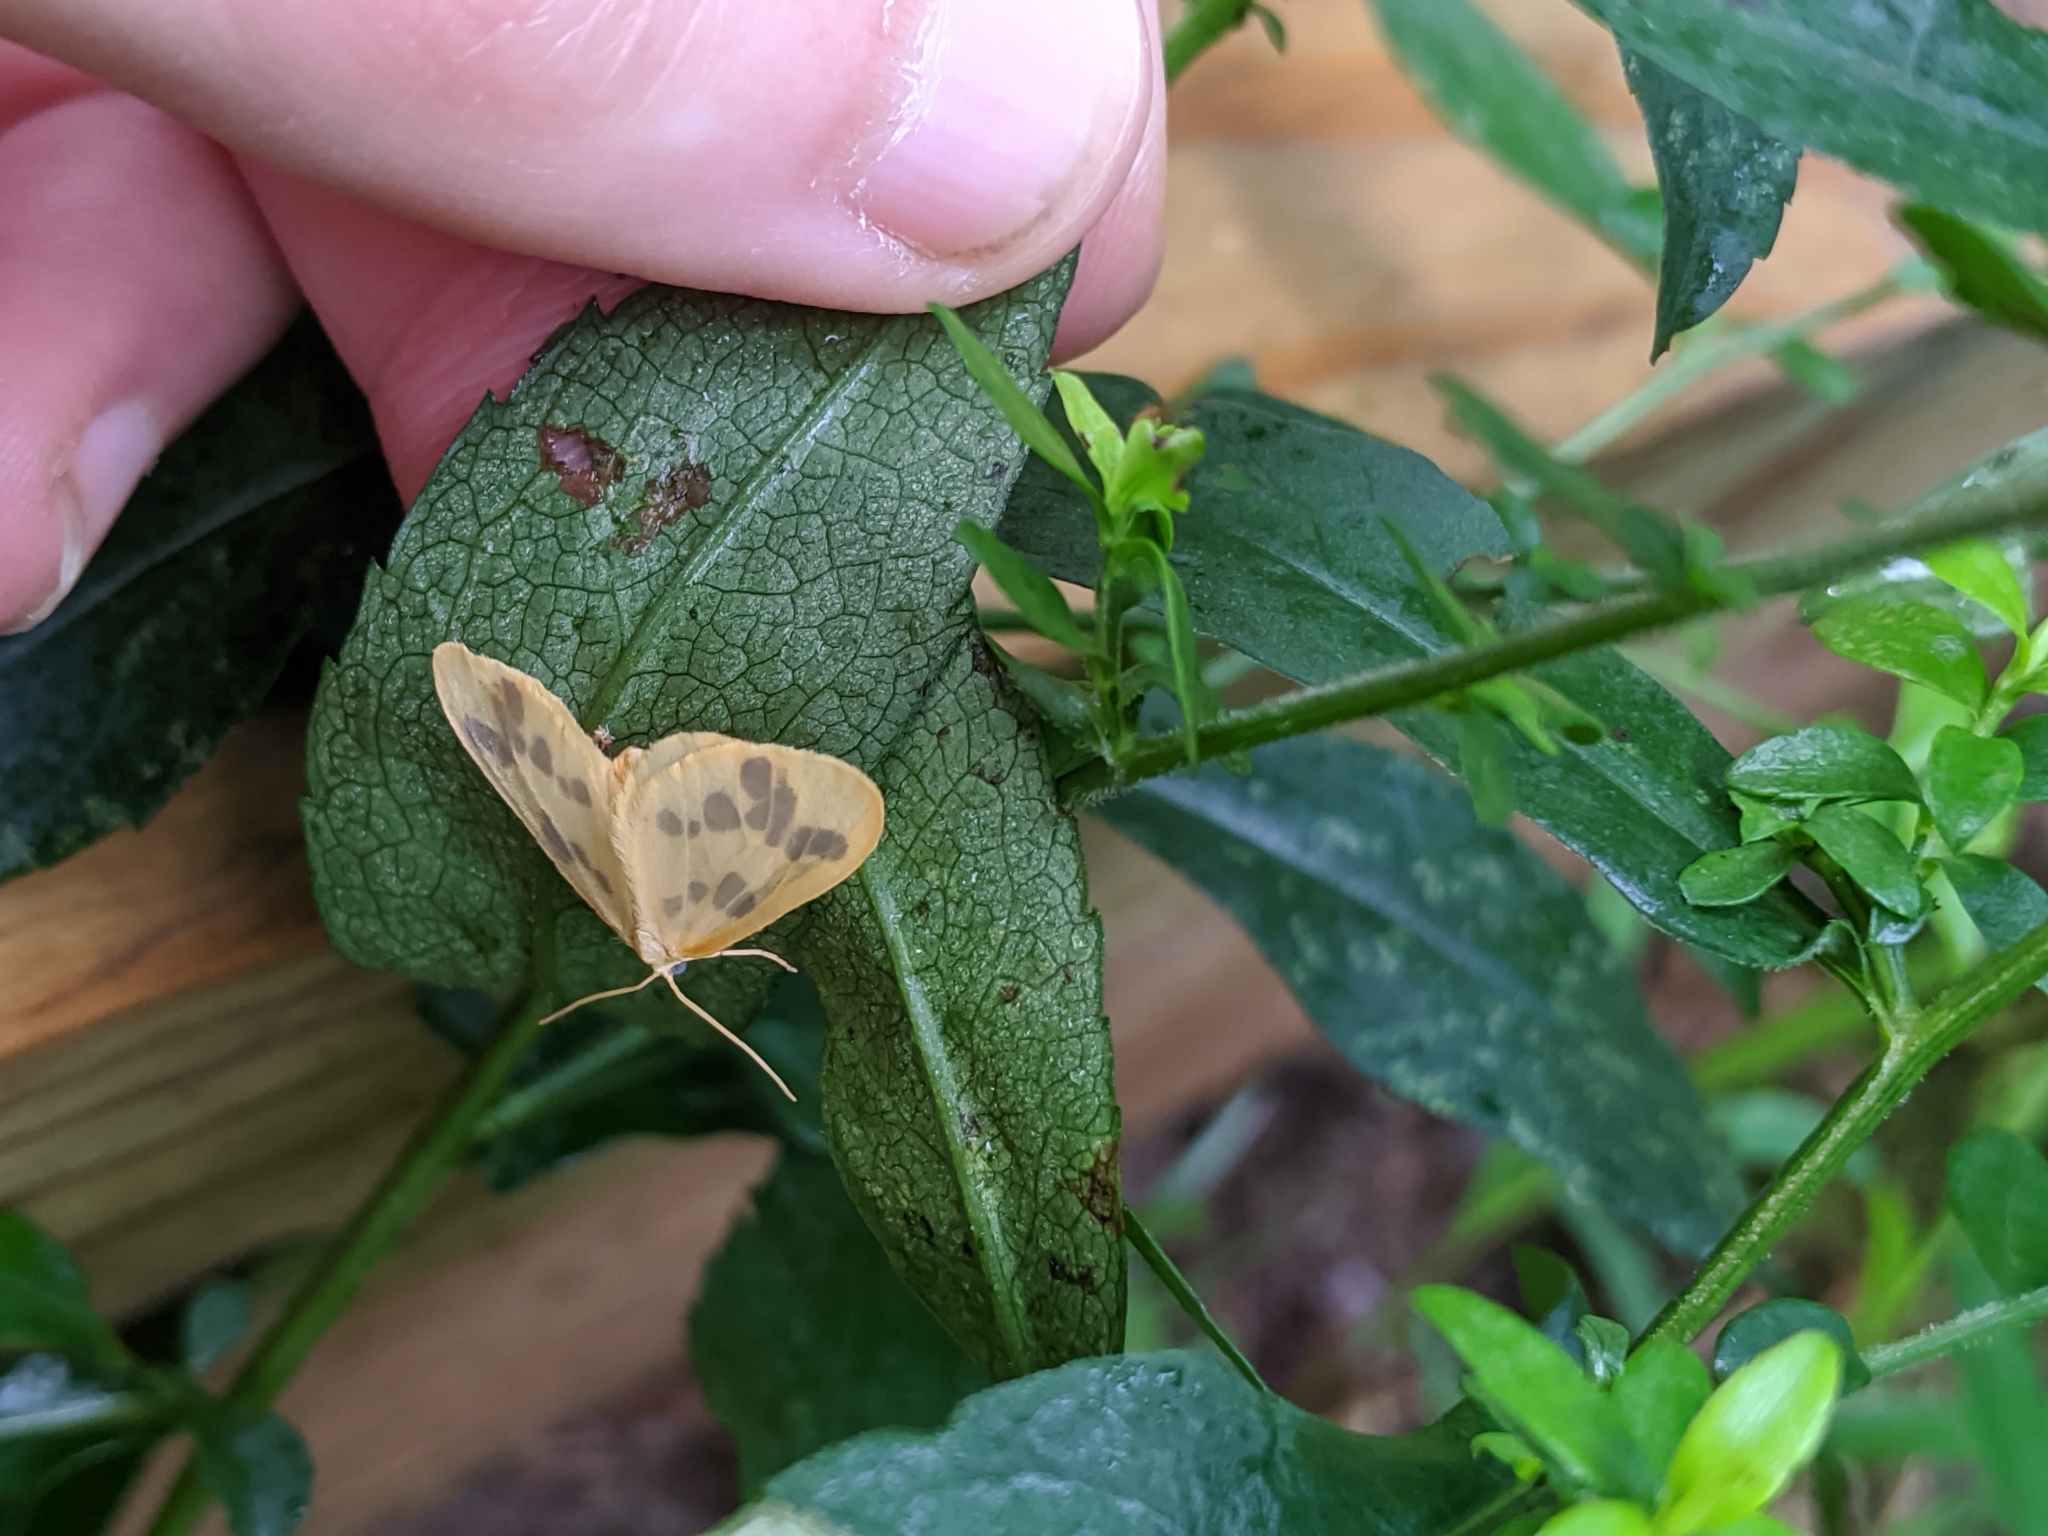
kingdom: Animalia
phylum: Arthropoda
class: Insecta
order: Lepidoptera
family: Geometridae
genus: Eubaphe
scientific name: Eubaphe mendica
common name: Beggar
